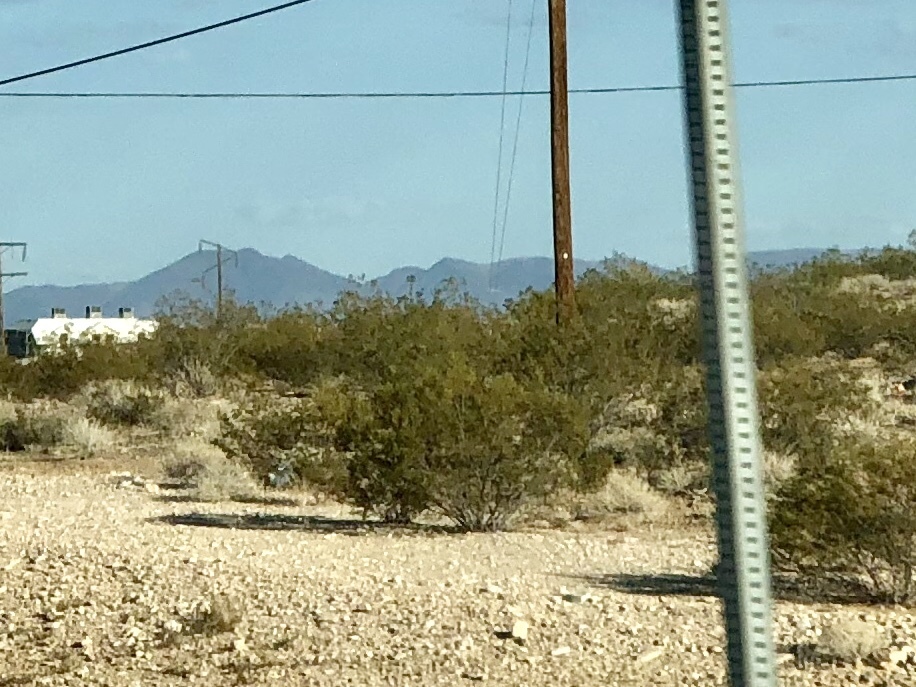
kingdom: Plantae
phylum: Tracheophyta
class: Magnoliopsida
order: Zygophyllales
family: Zygophyllaceae
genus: Larrea
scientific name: Larrea tridentata
